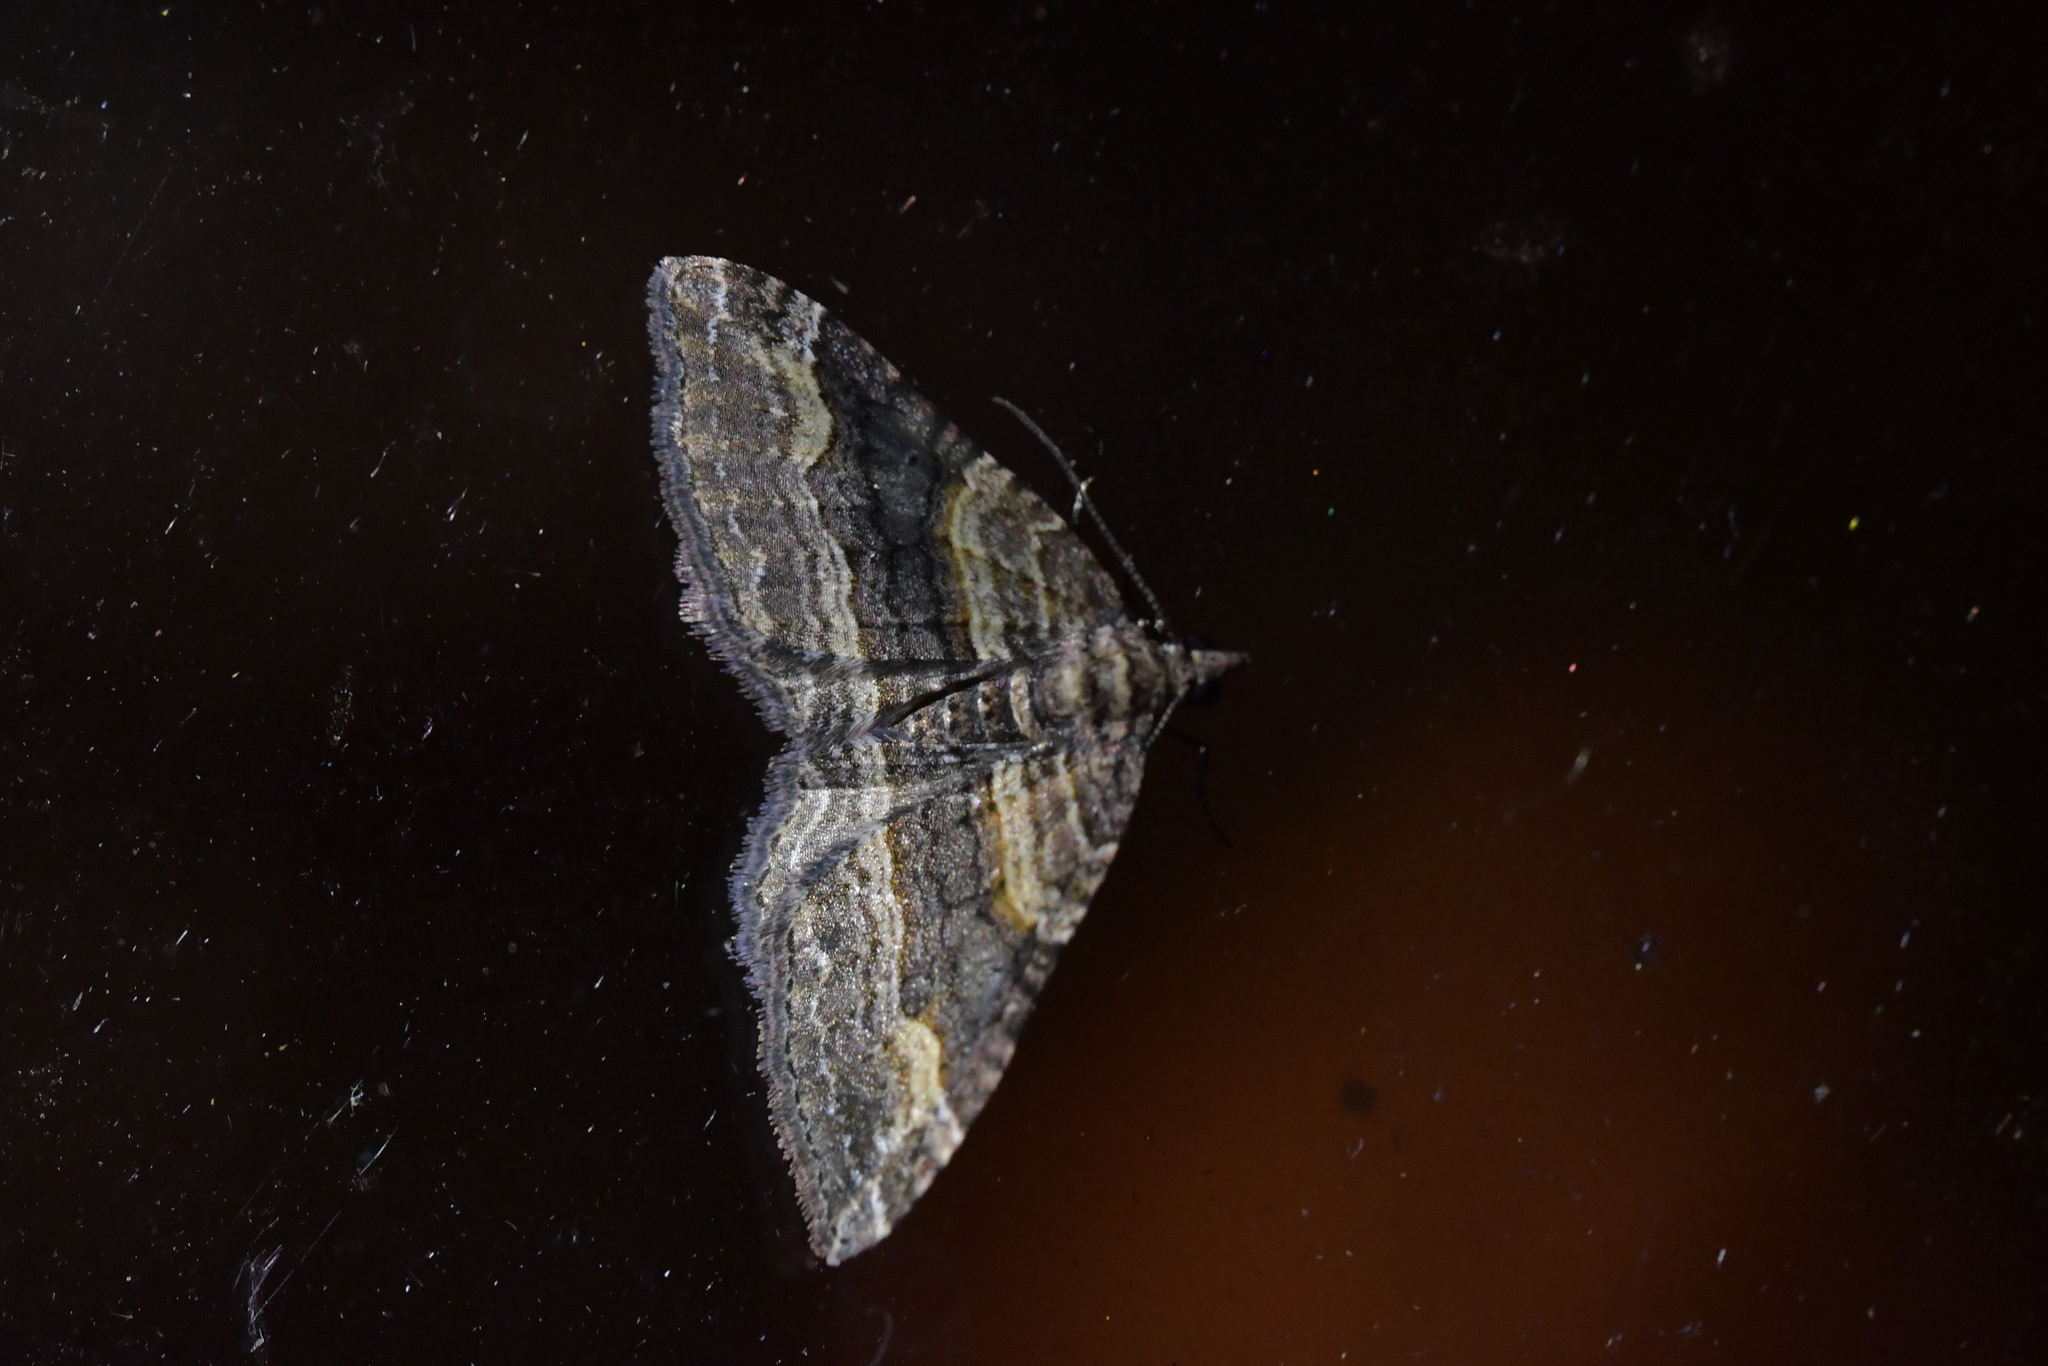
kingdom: Animalia
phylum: Arthropoda
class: Insecta
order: Lepidoptera
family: Geometridae
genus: Epyaxa
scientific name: Epyaxa lucidata
